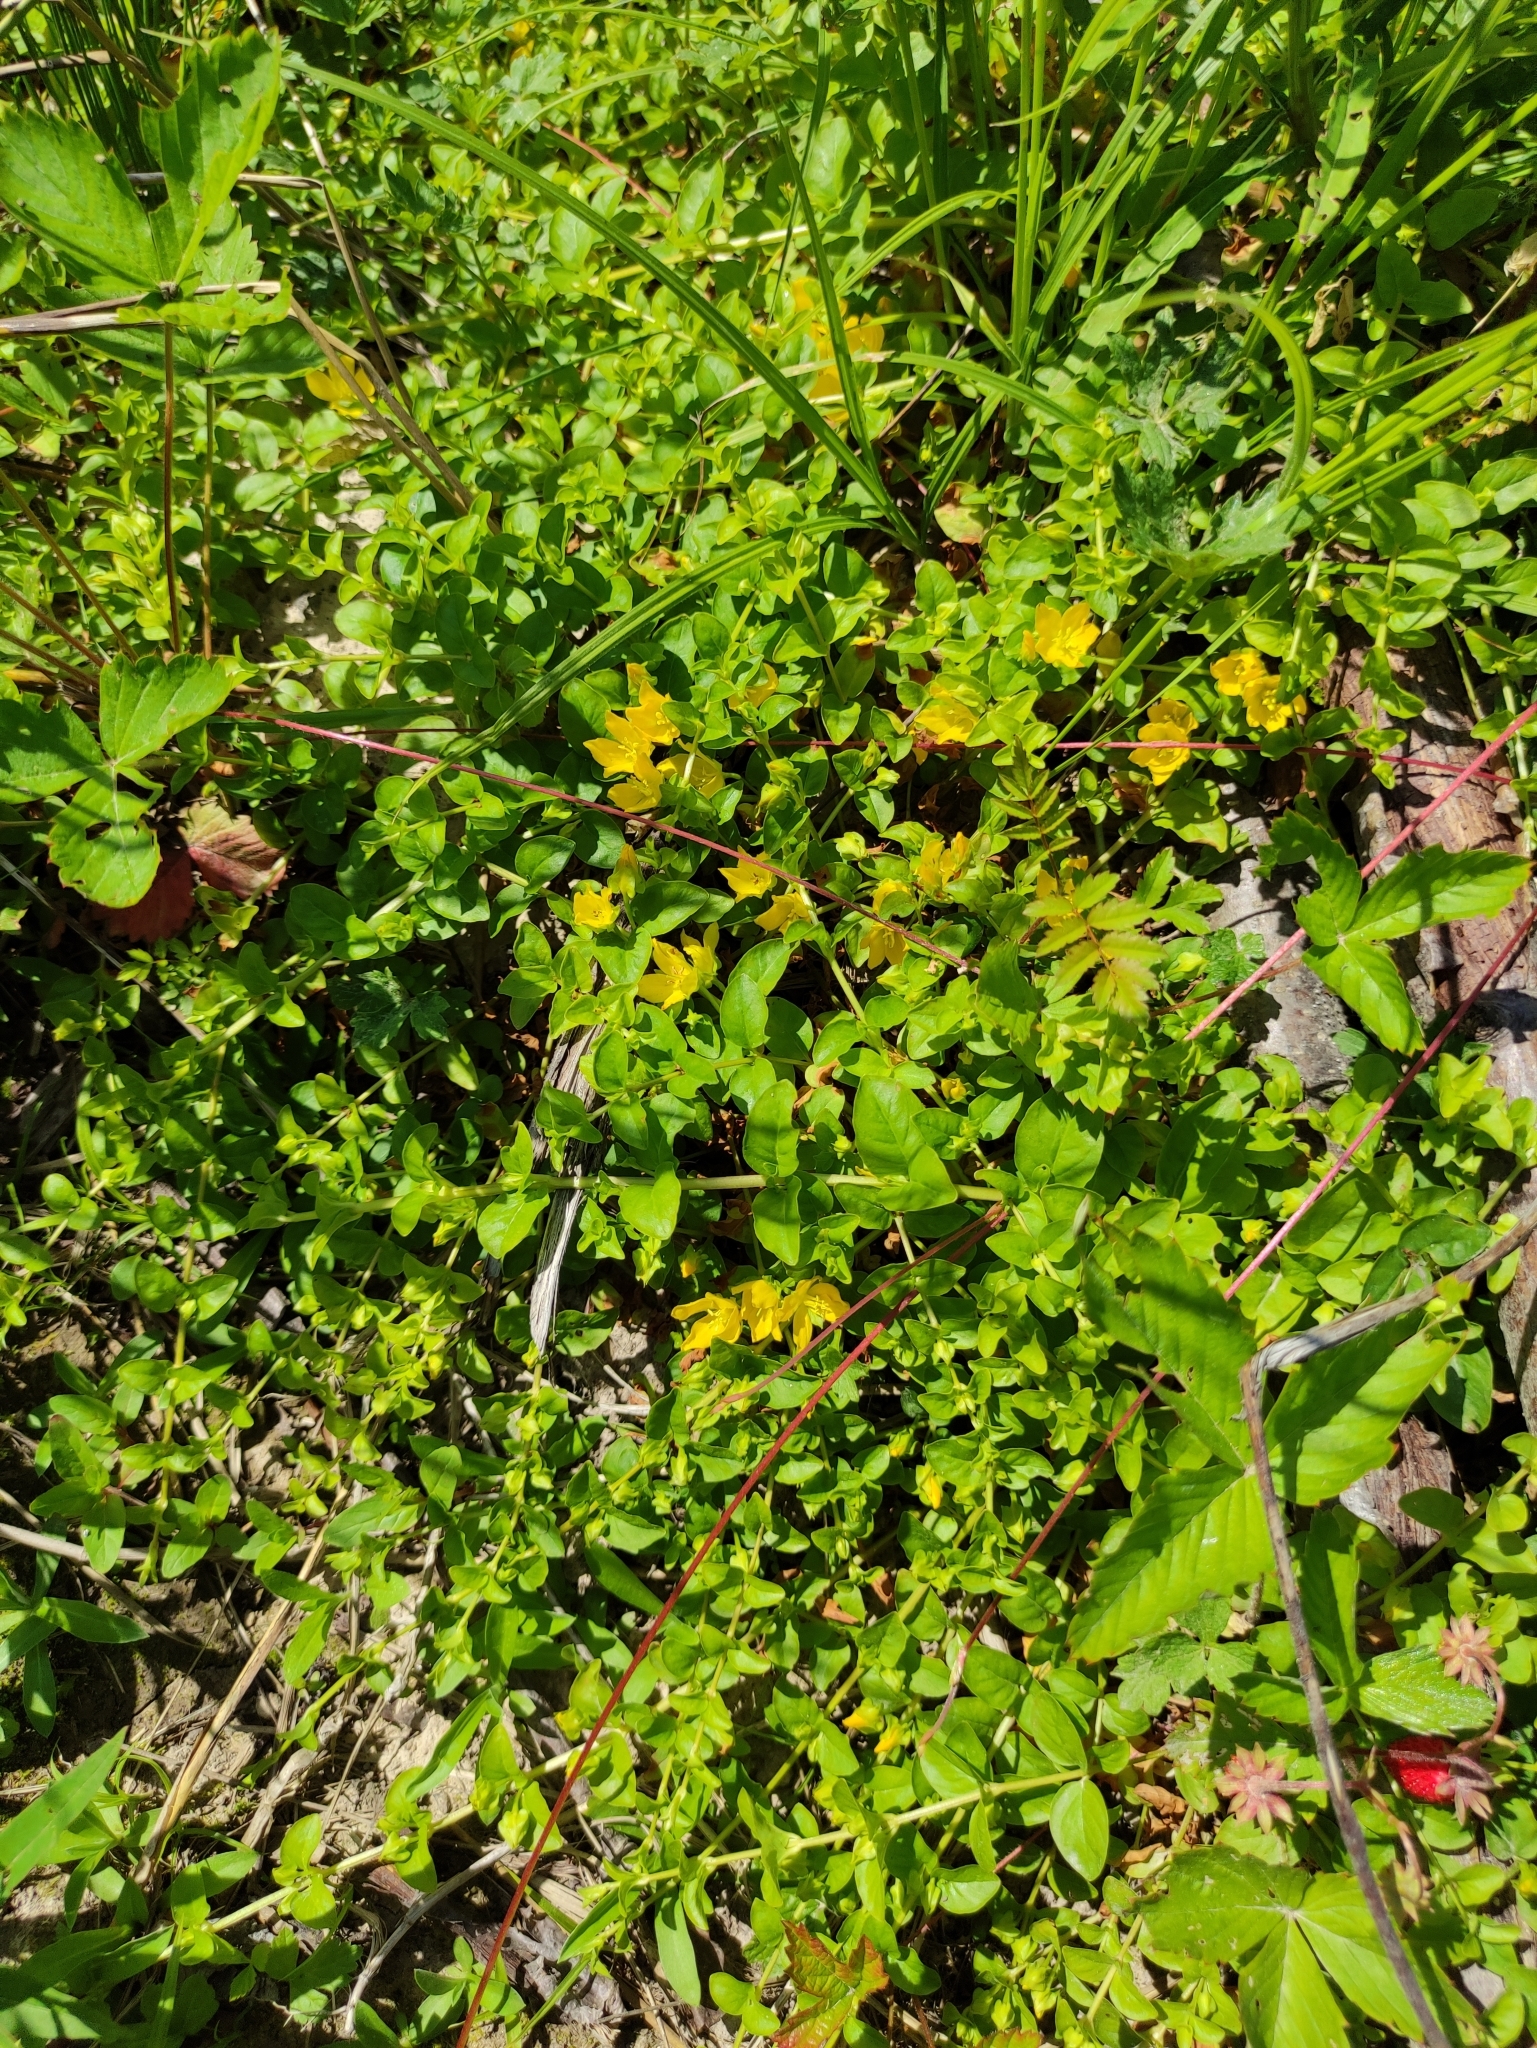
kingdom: Plantae
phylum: Tracheophyta
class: Magnoliopsida
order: Ericales
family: Primulaceae
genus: Lysimachia
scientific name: Lysimachia nummularia
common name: Moneywort
